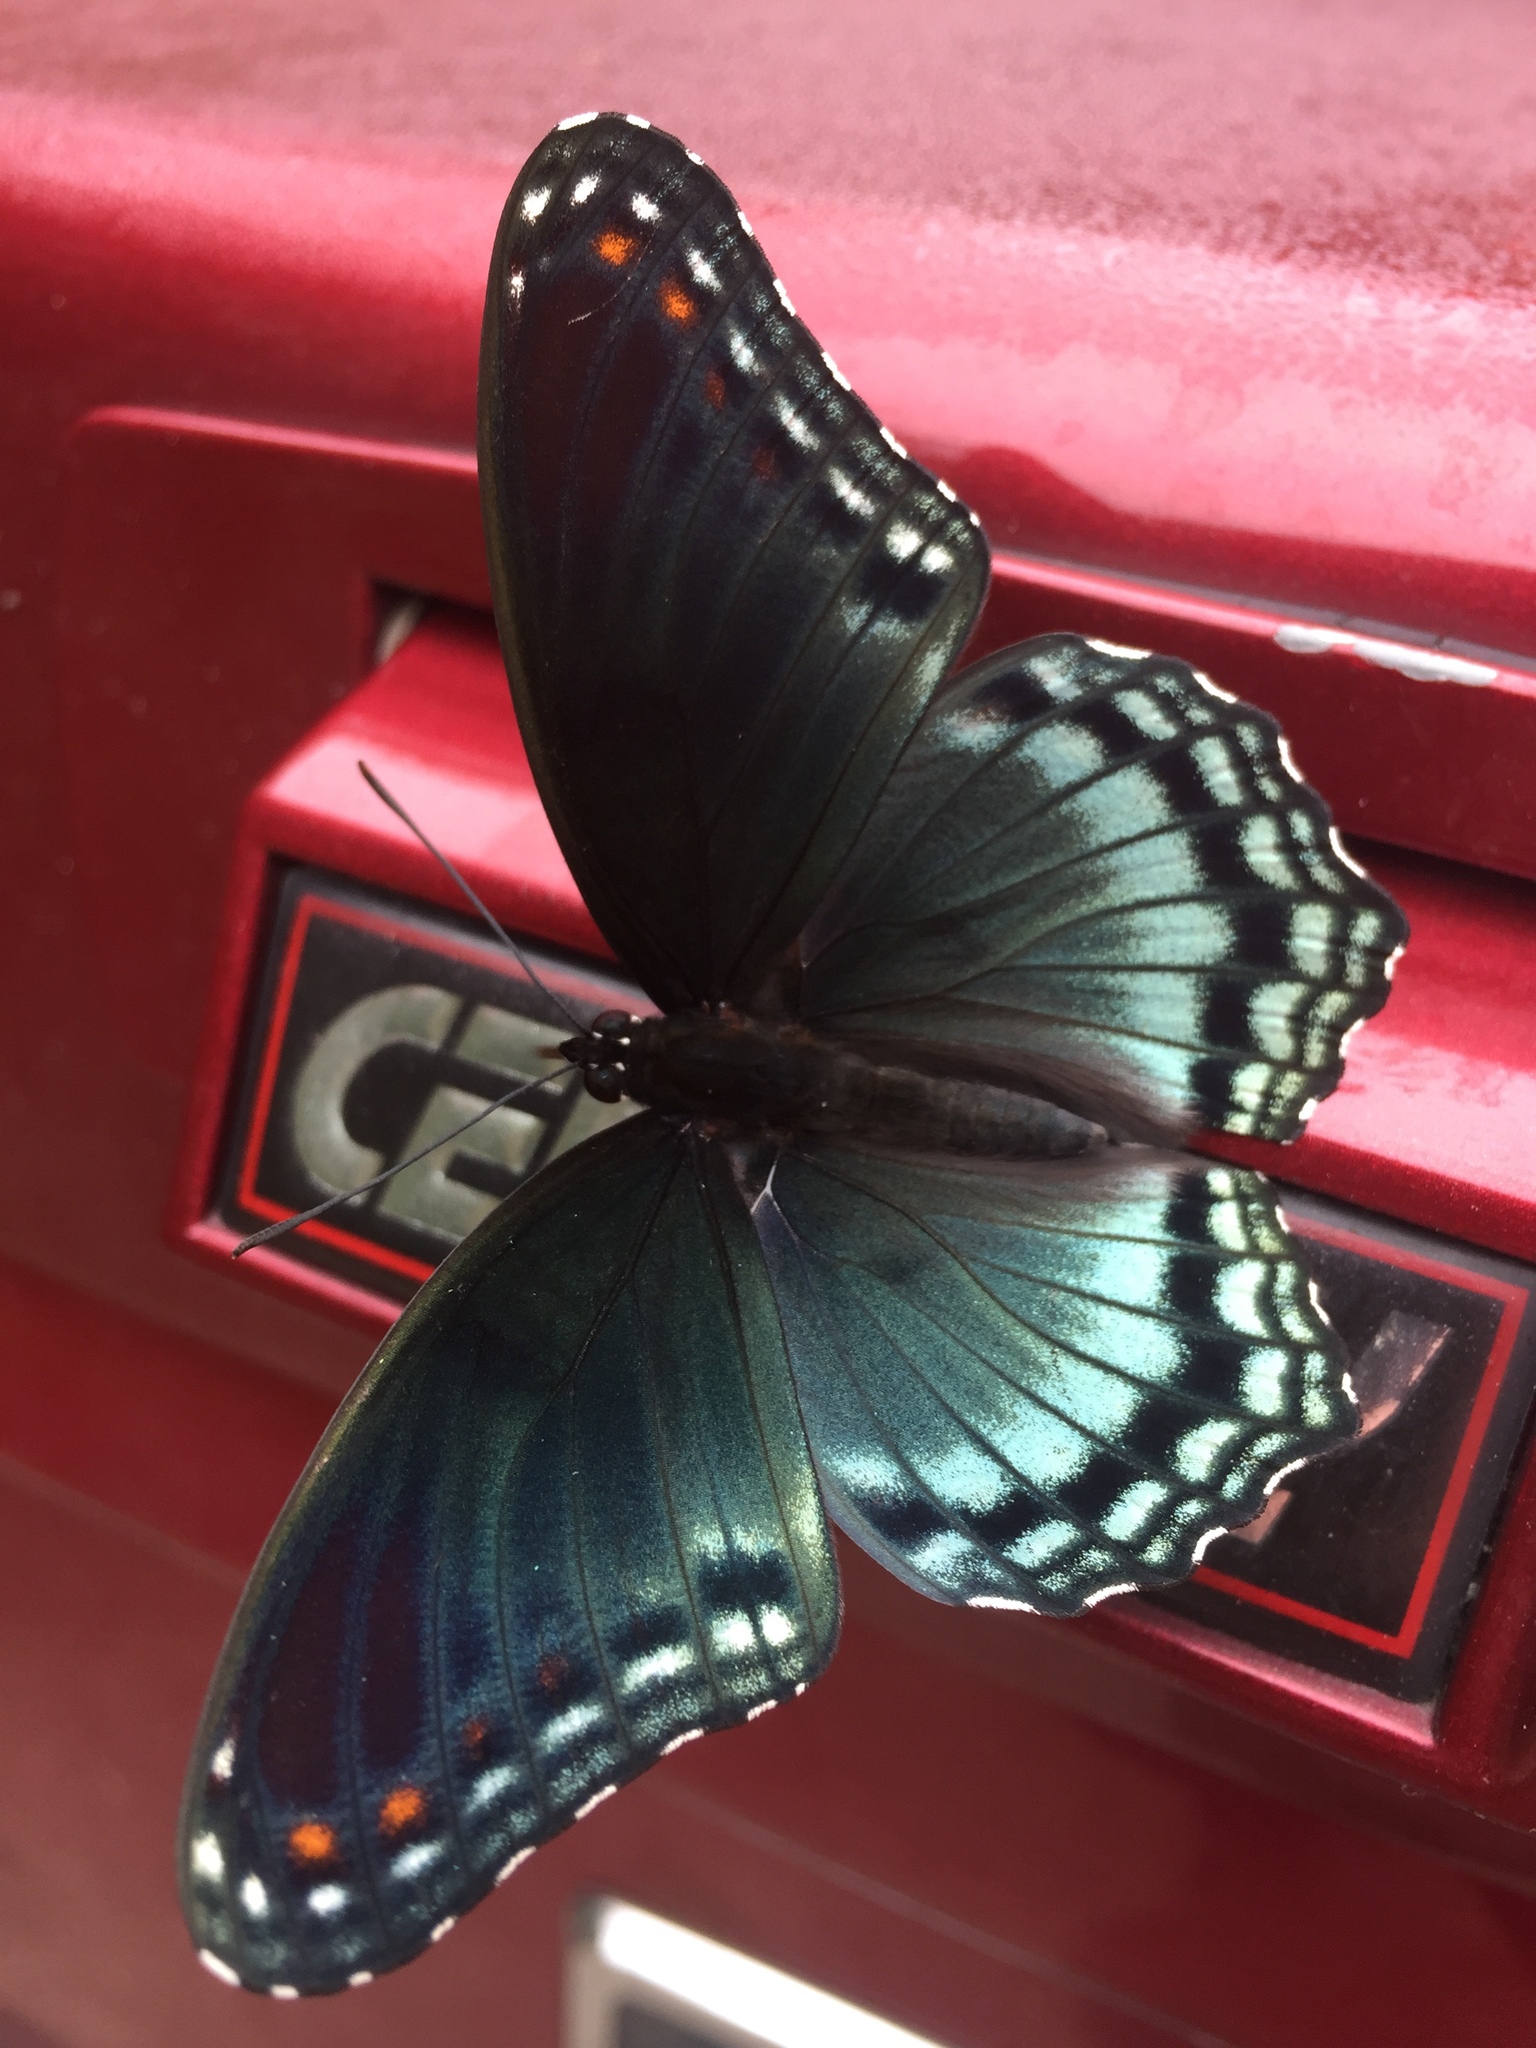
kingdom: Animalia
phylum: Arthropoda
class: Insecta
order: Lepidoptera
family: Nymphalidae
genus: Limenitis
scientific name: Limenitis astyanax
